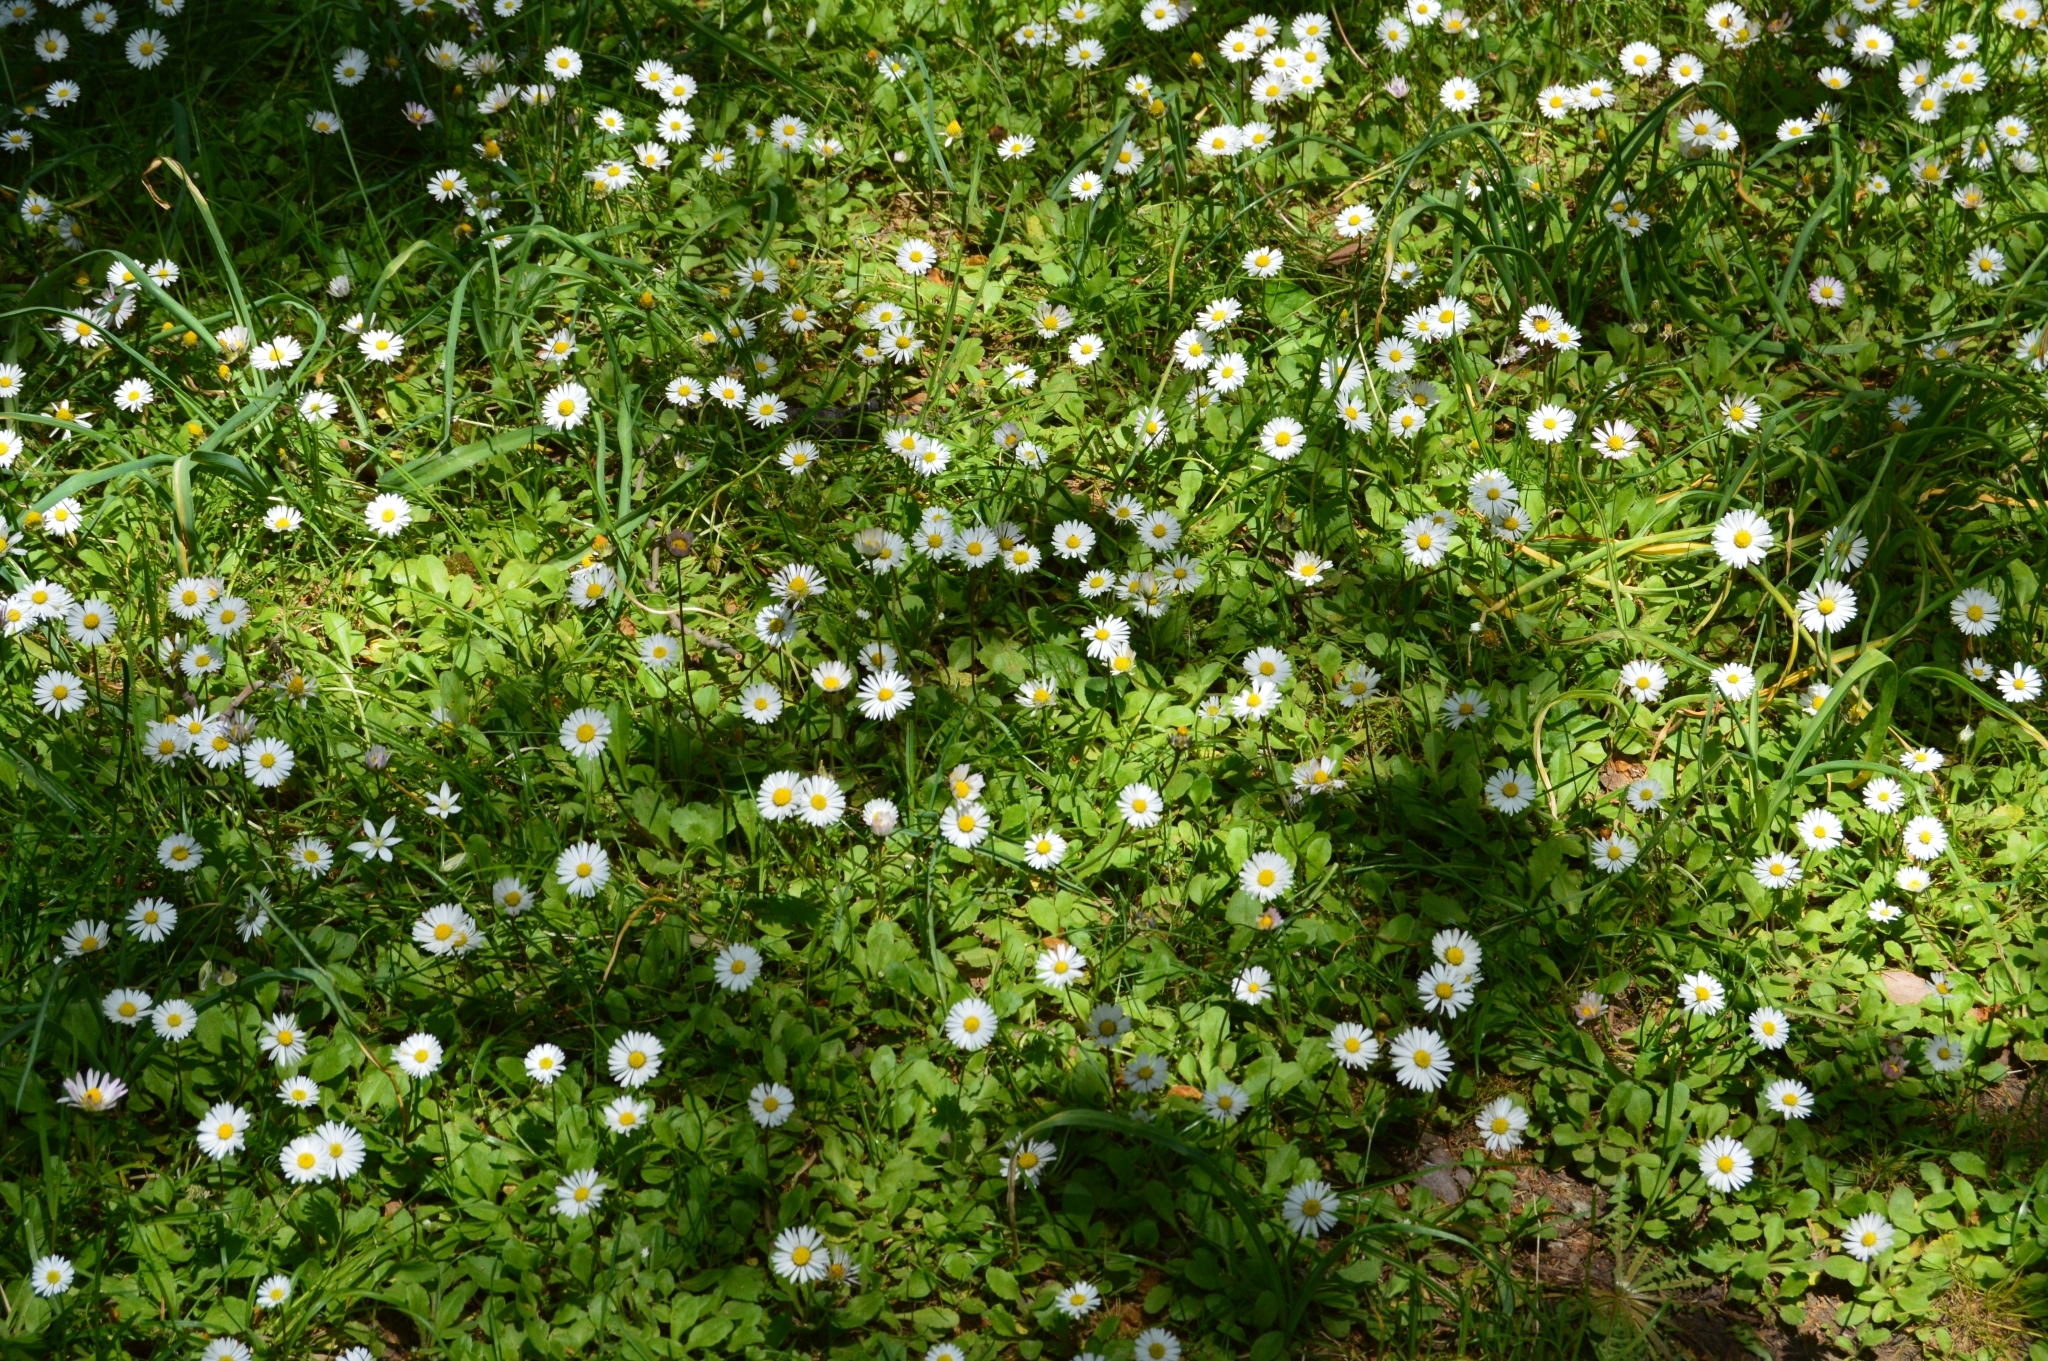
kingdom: Plantae
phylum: Tracheophyta
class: Magnoliopsida
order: Asterales
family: Asteraceae
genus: Bellis
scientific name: Bellis perennis
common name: Lawndaisy
